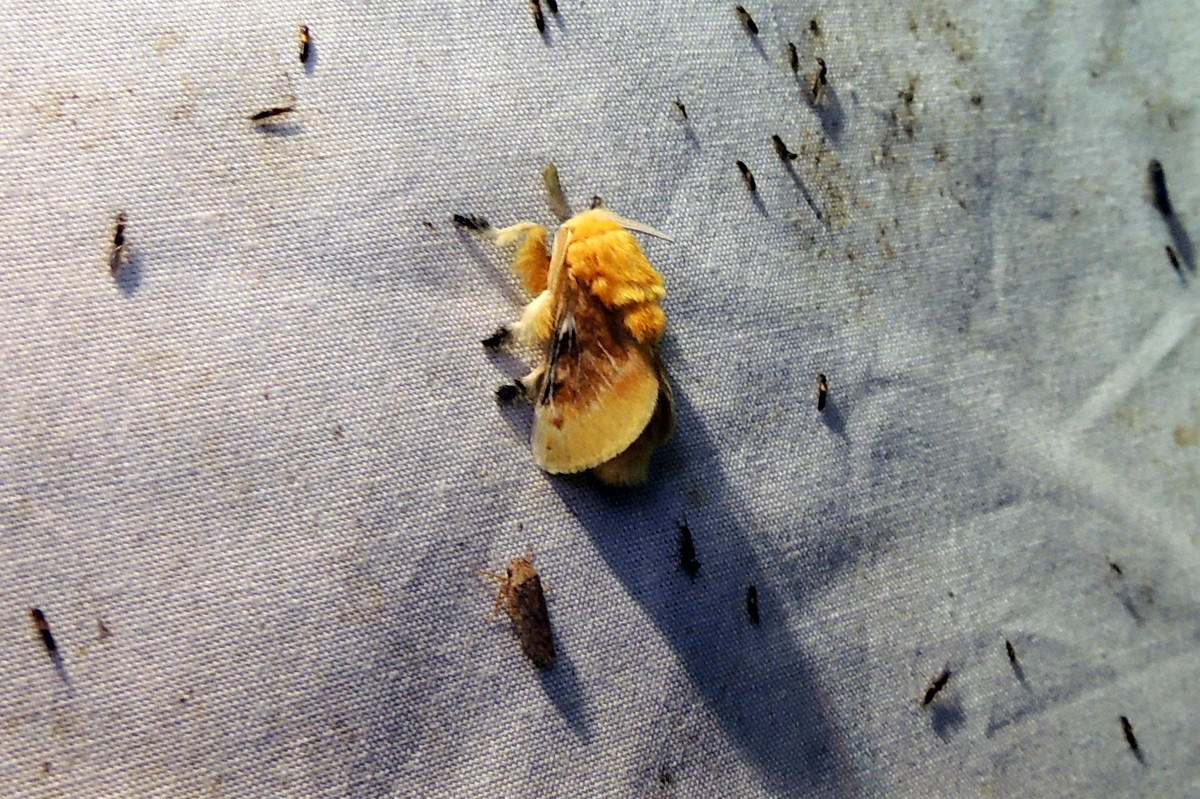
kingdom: Animalia
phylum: Arthropoda
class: Insecta
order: Lepidoptera
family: Megalopygidae
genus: Megalopyge
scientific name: Megalopyge opercularis
